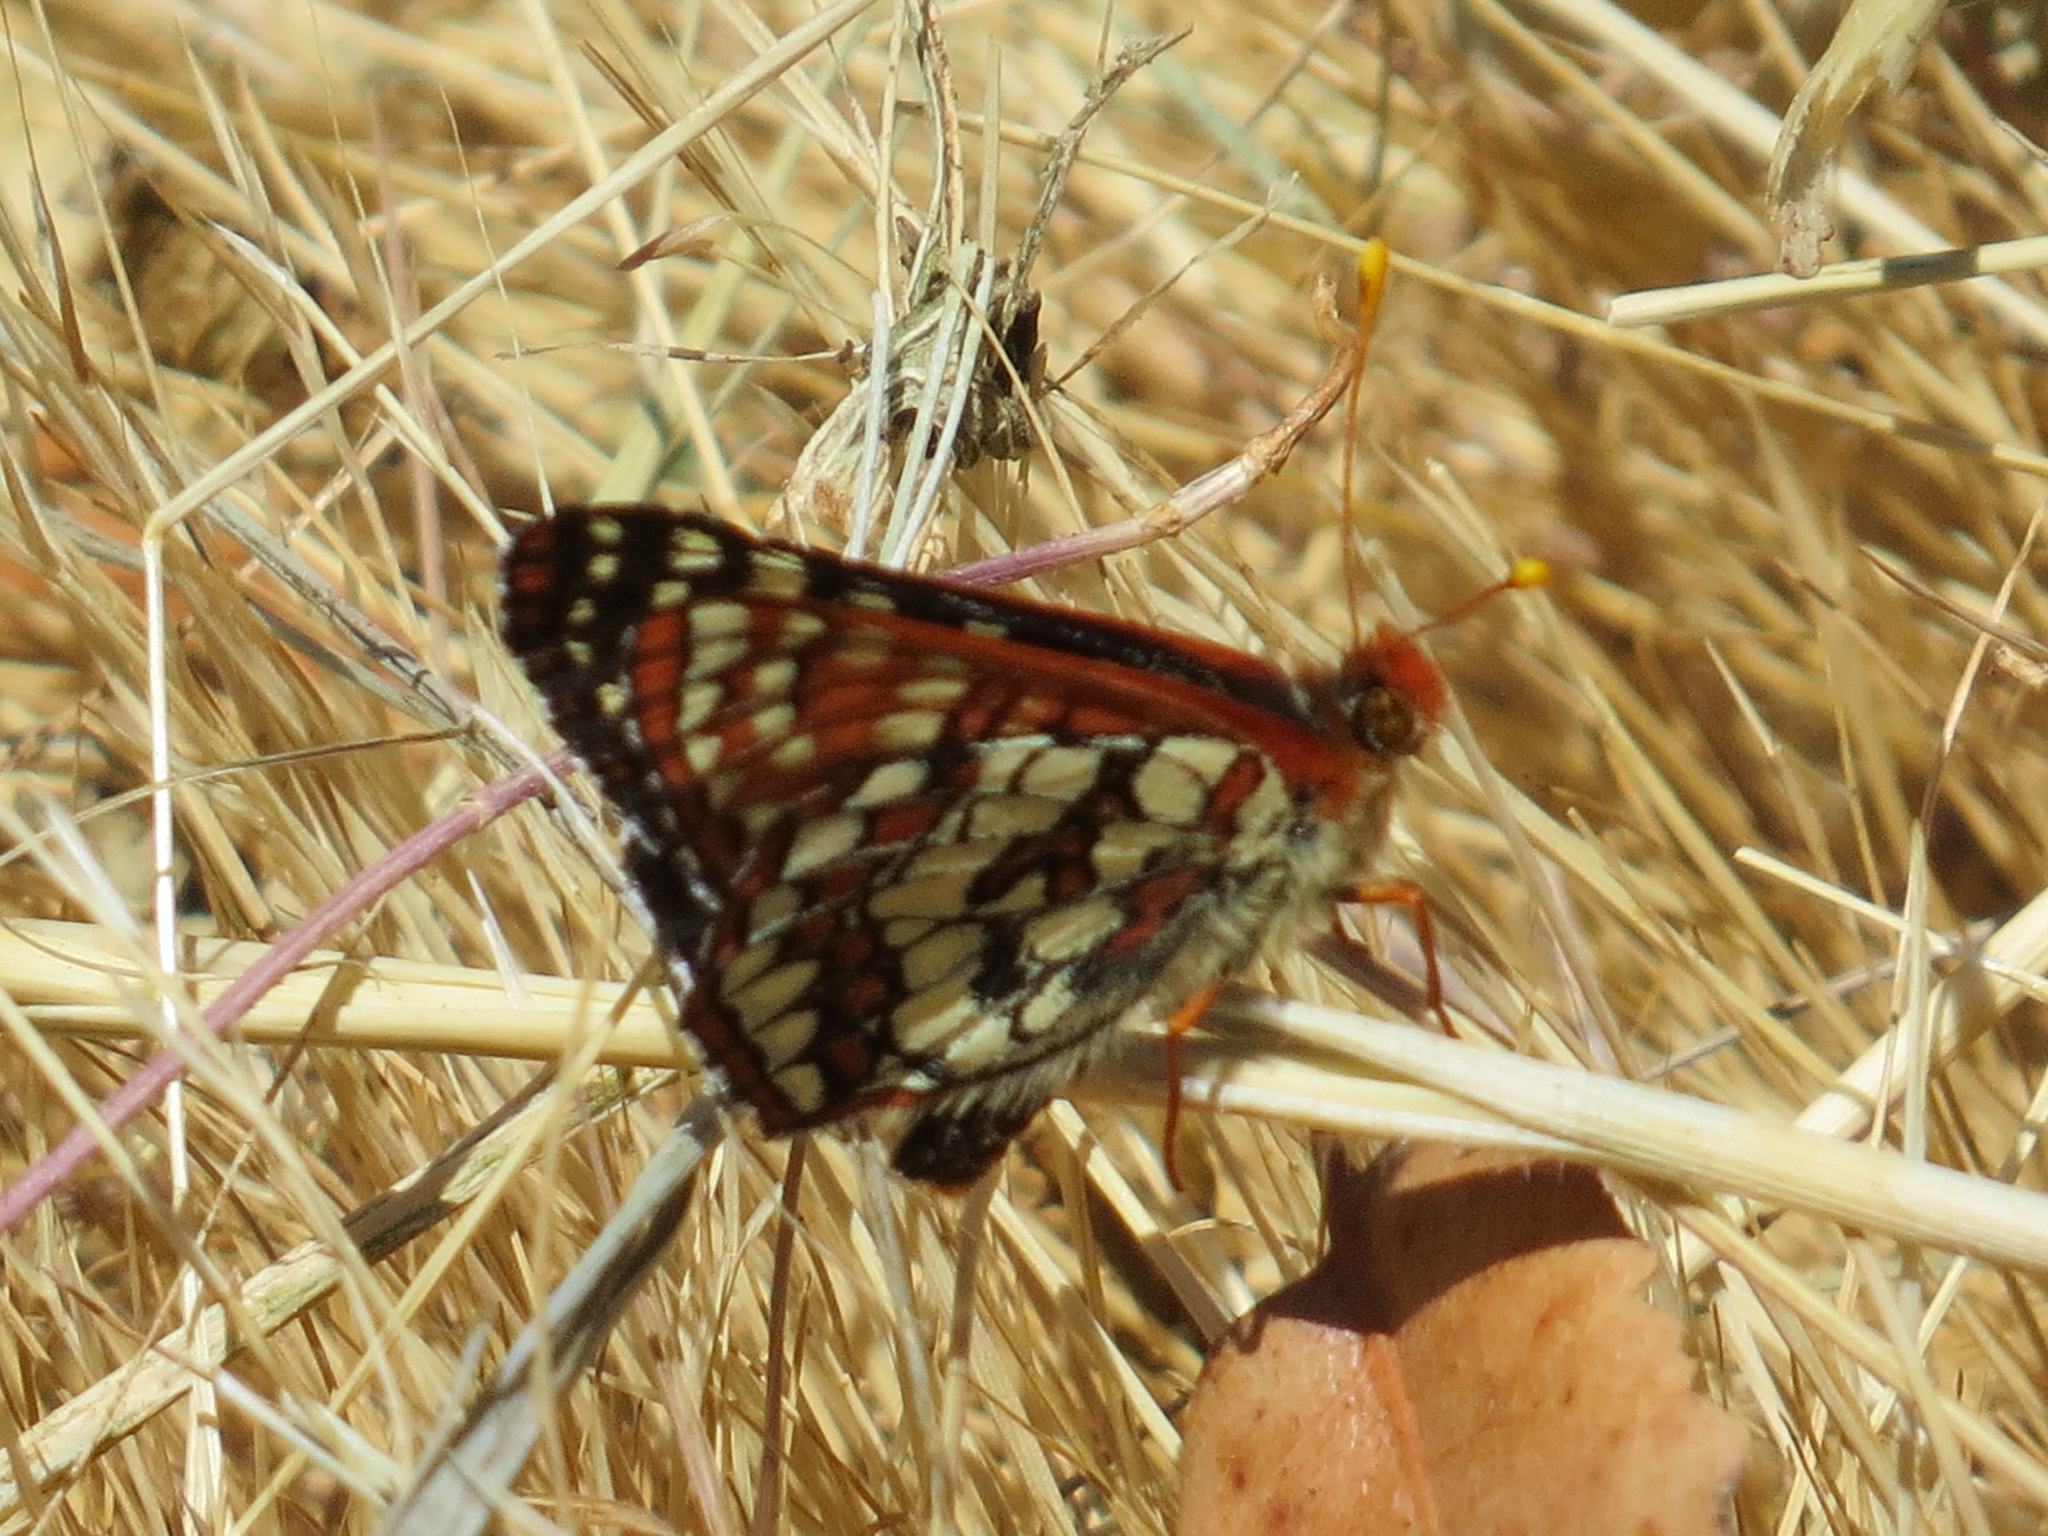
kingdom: Animalia
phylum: Arthropoda
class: Insecta
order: Lepidoptera
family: Nymphalidae
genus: Occidryas
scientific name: Occidryas chalcedona
